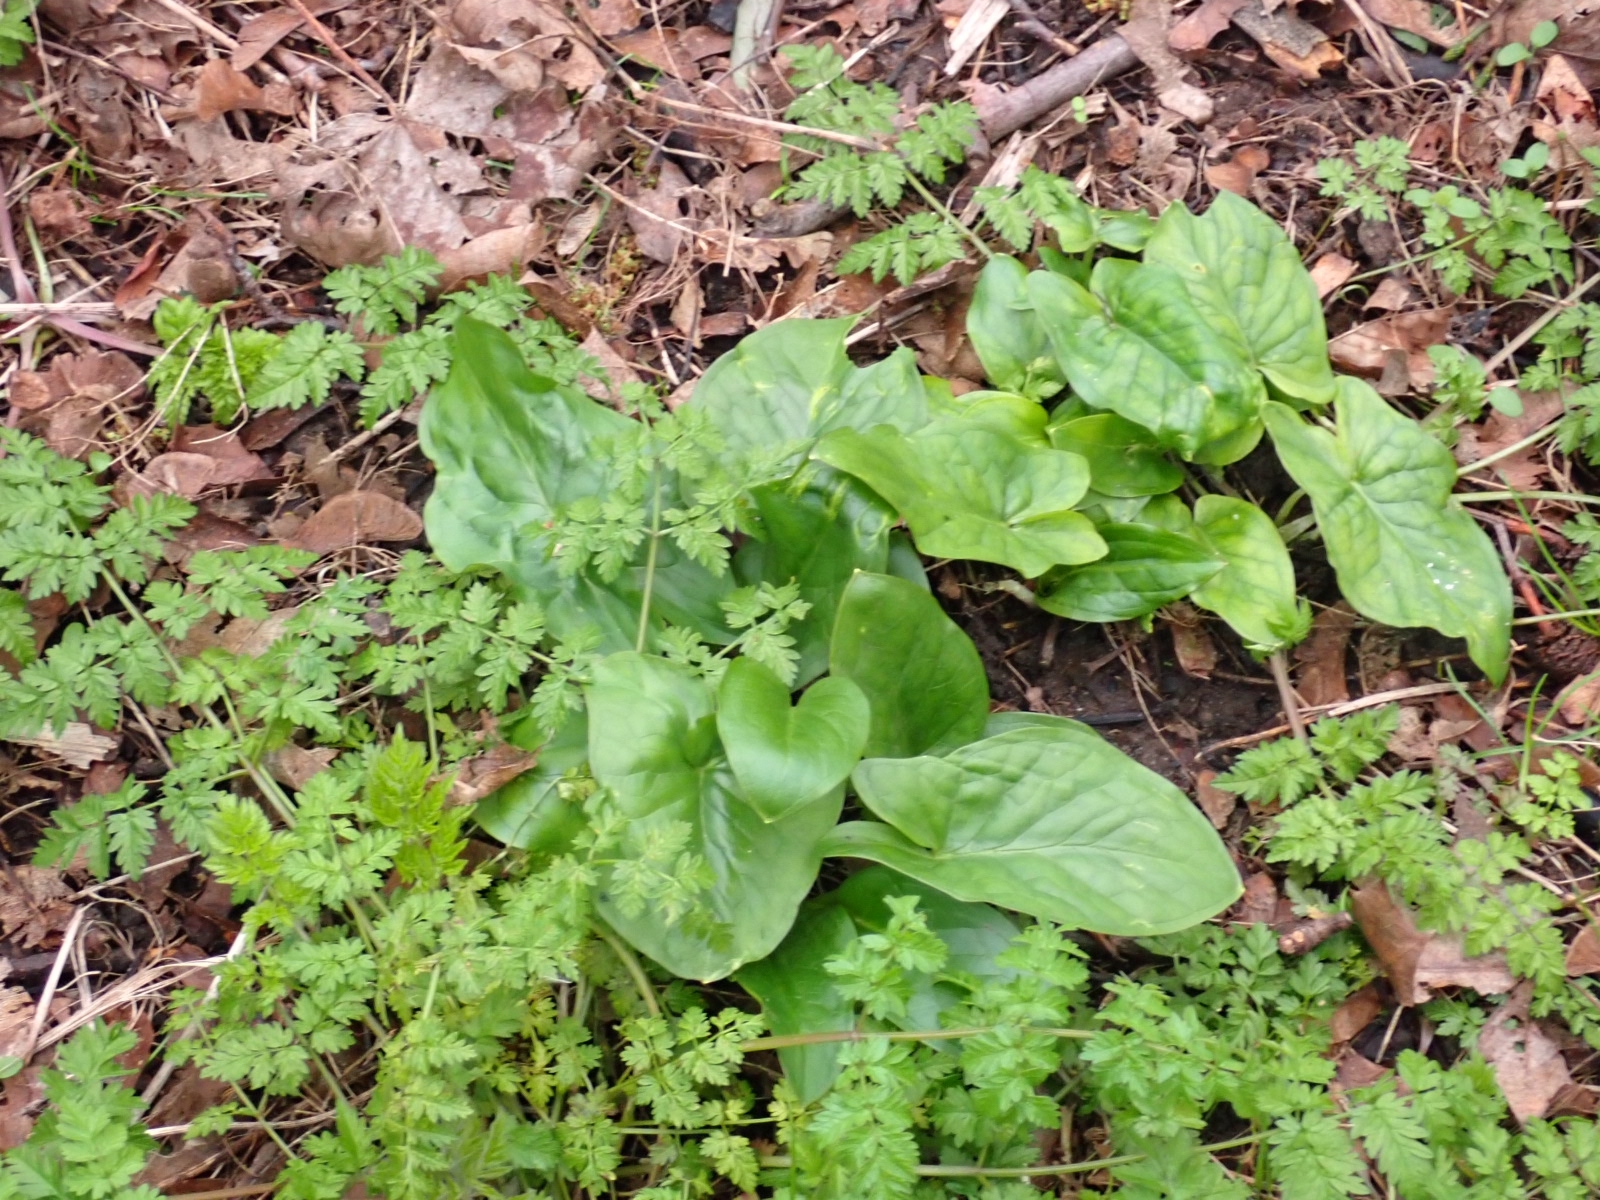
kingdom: Plantae
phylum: Tracheophyta
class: Liliopsida
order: Alismatales
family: Araceae
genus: Arum
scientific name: Arum maculatum
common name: Lords-and-ladies
